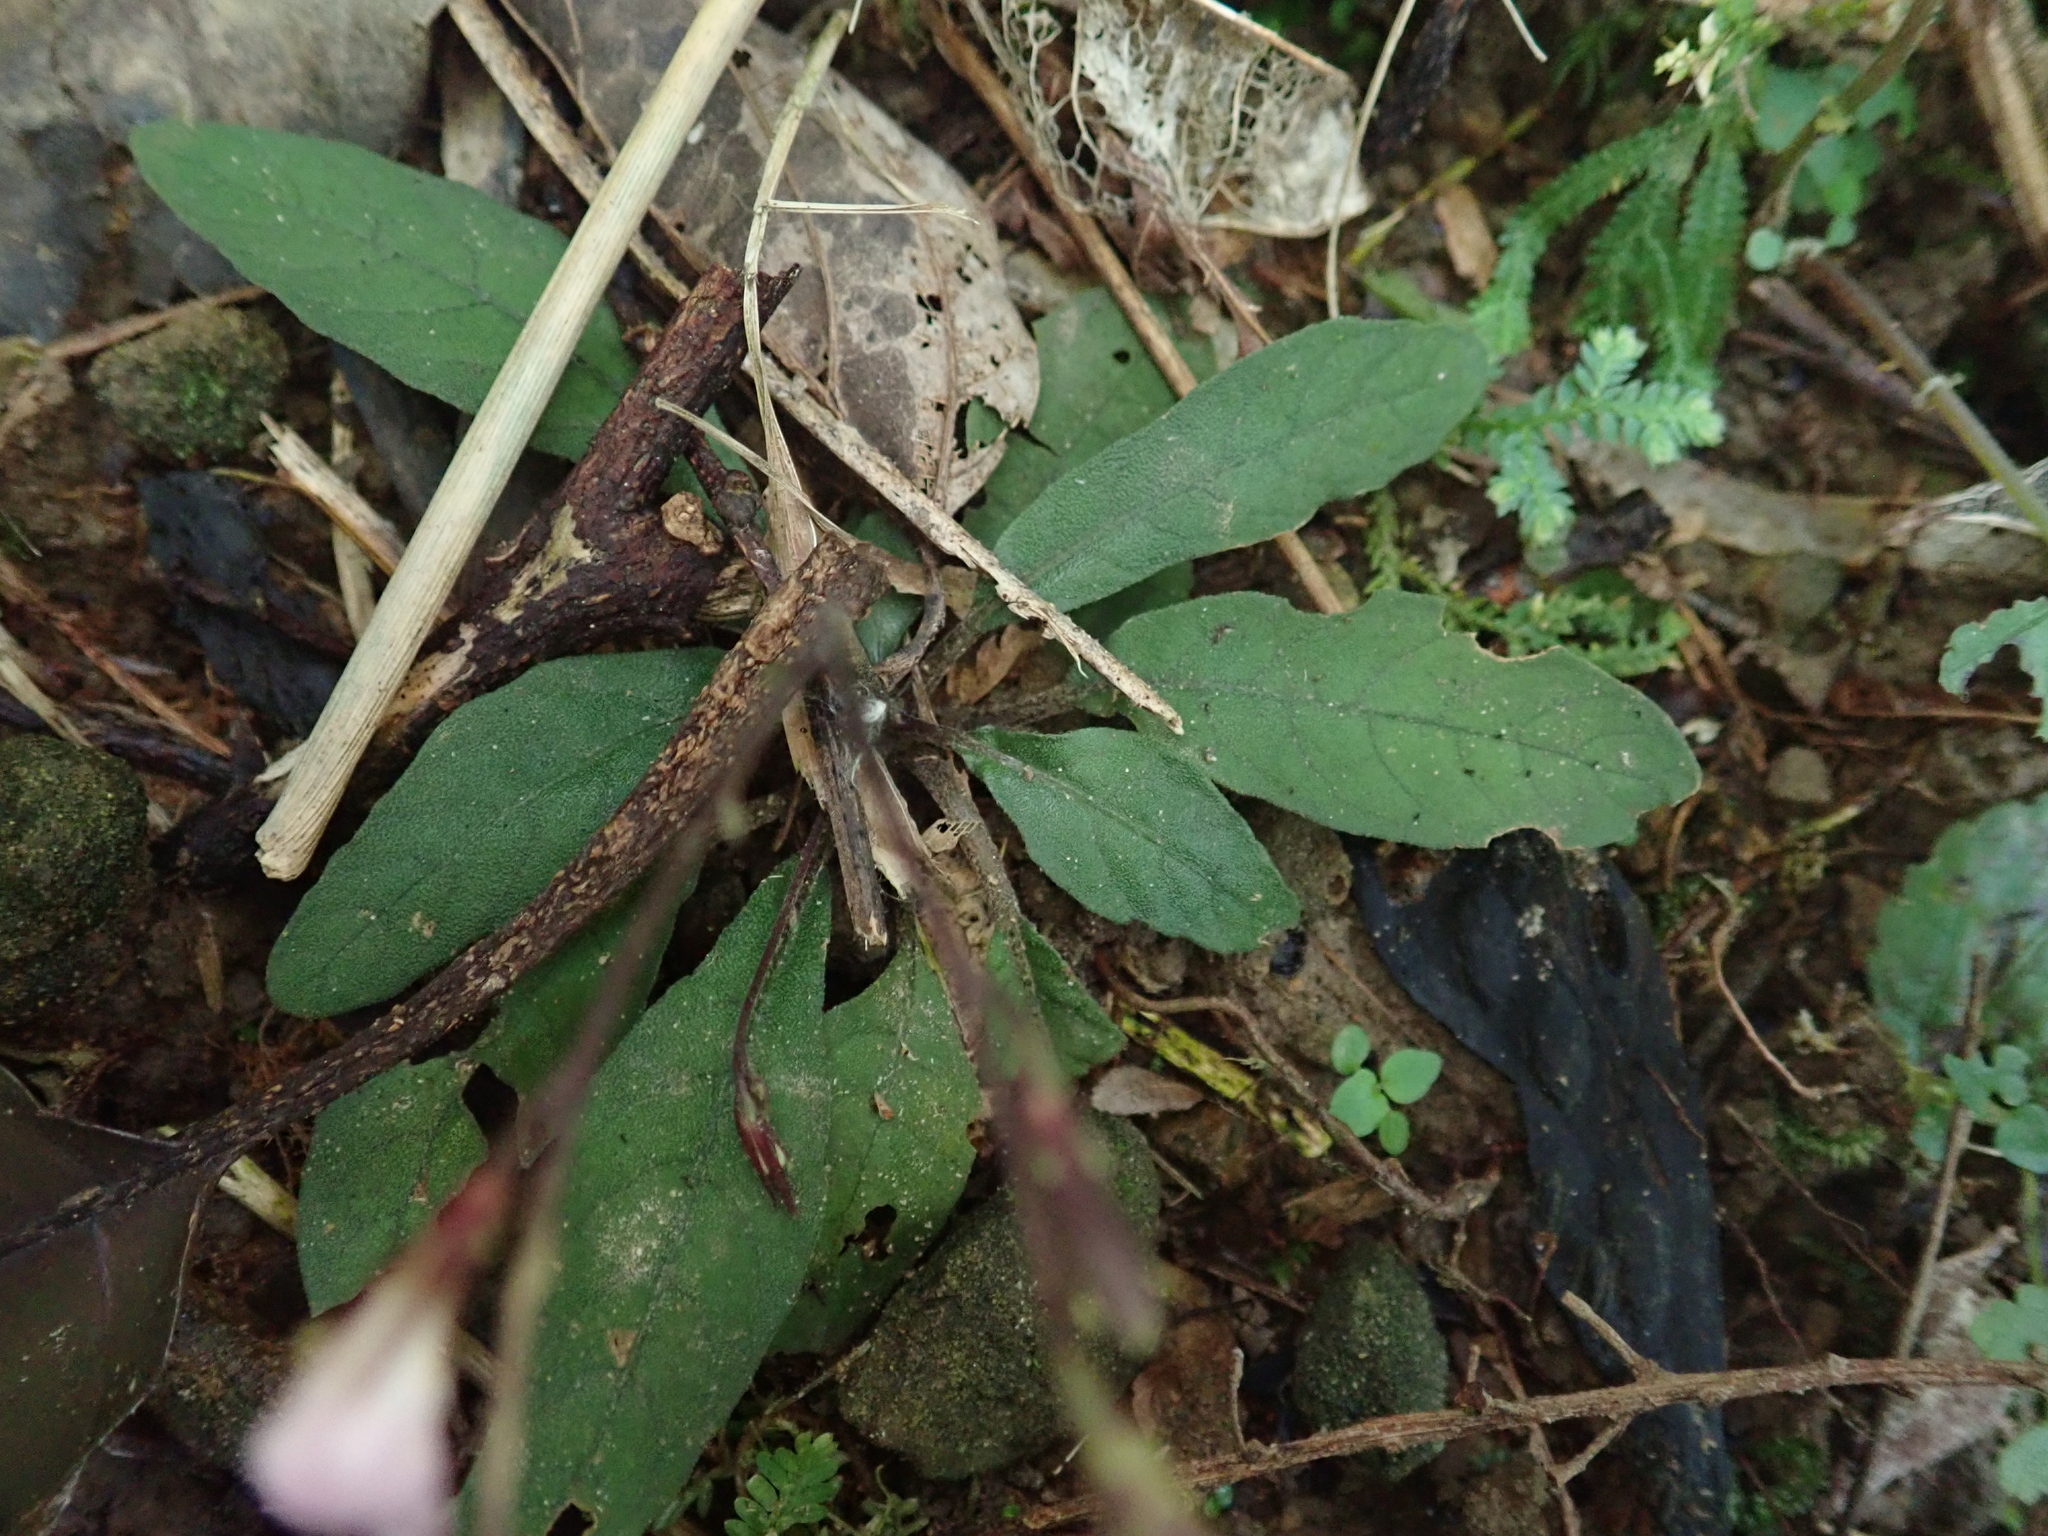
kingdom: Plantae
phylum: Tracheophyta
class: Magnoliopsida
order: Lamiales
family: Acanthaceae
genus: Staurogyne
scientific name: Staurogyne concinnula
